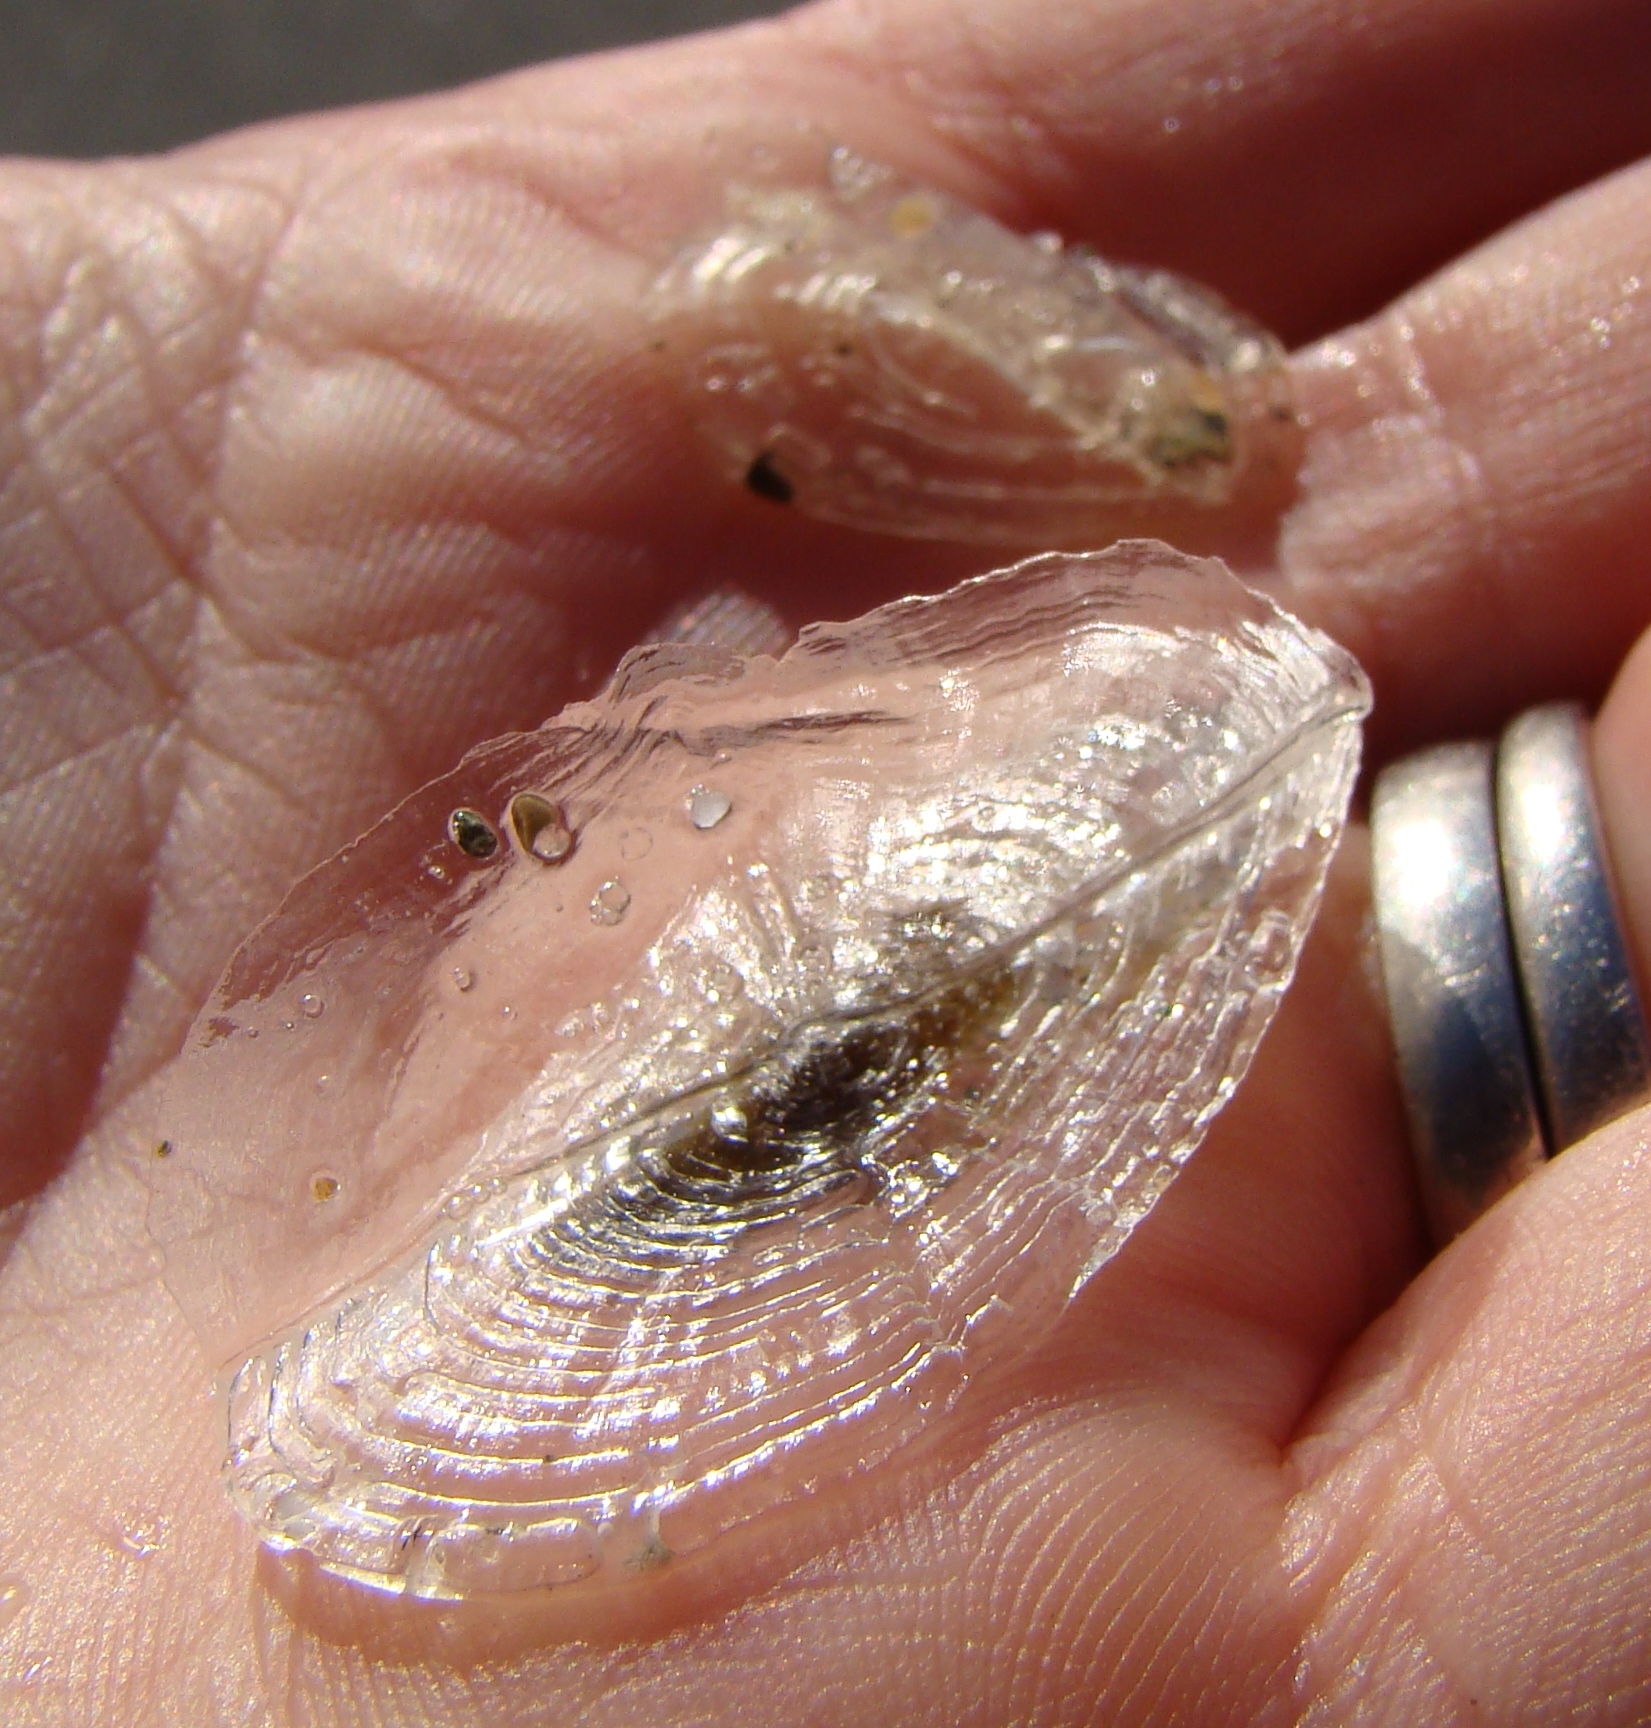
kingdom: Animalia
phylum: Cnidaria
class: Hydrozoa
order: Anthoathecata
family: Porpitidae
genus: Velella
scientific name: Velella velella
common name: By-the-wind-sailor
